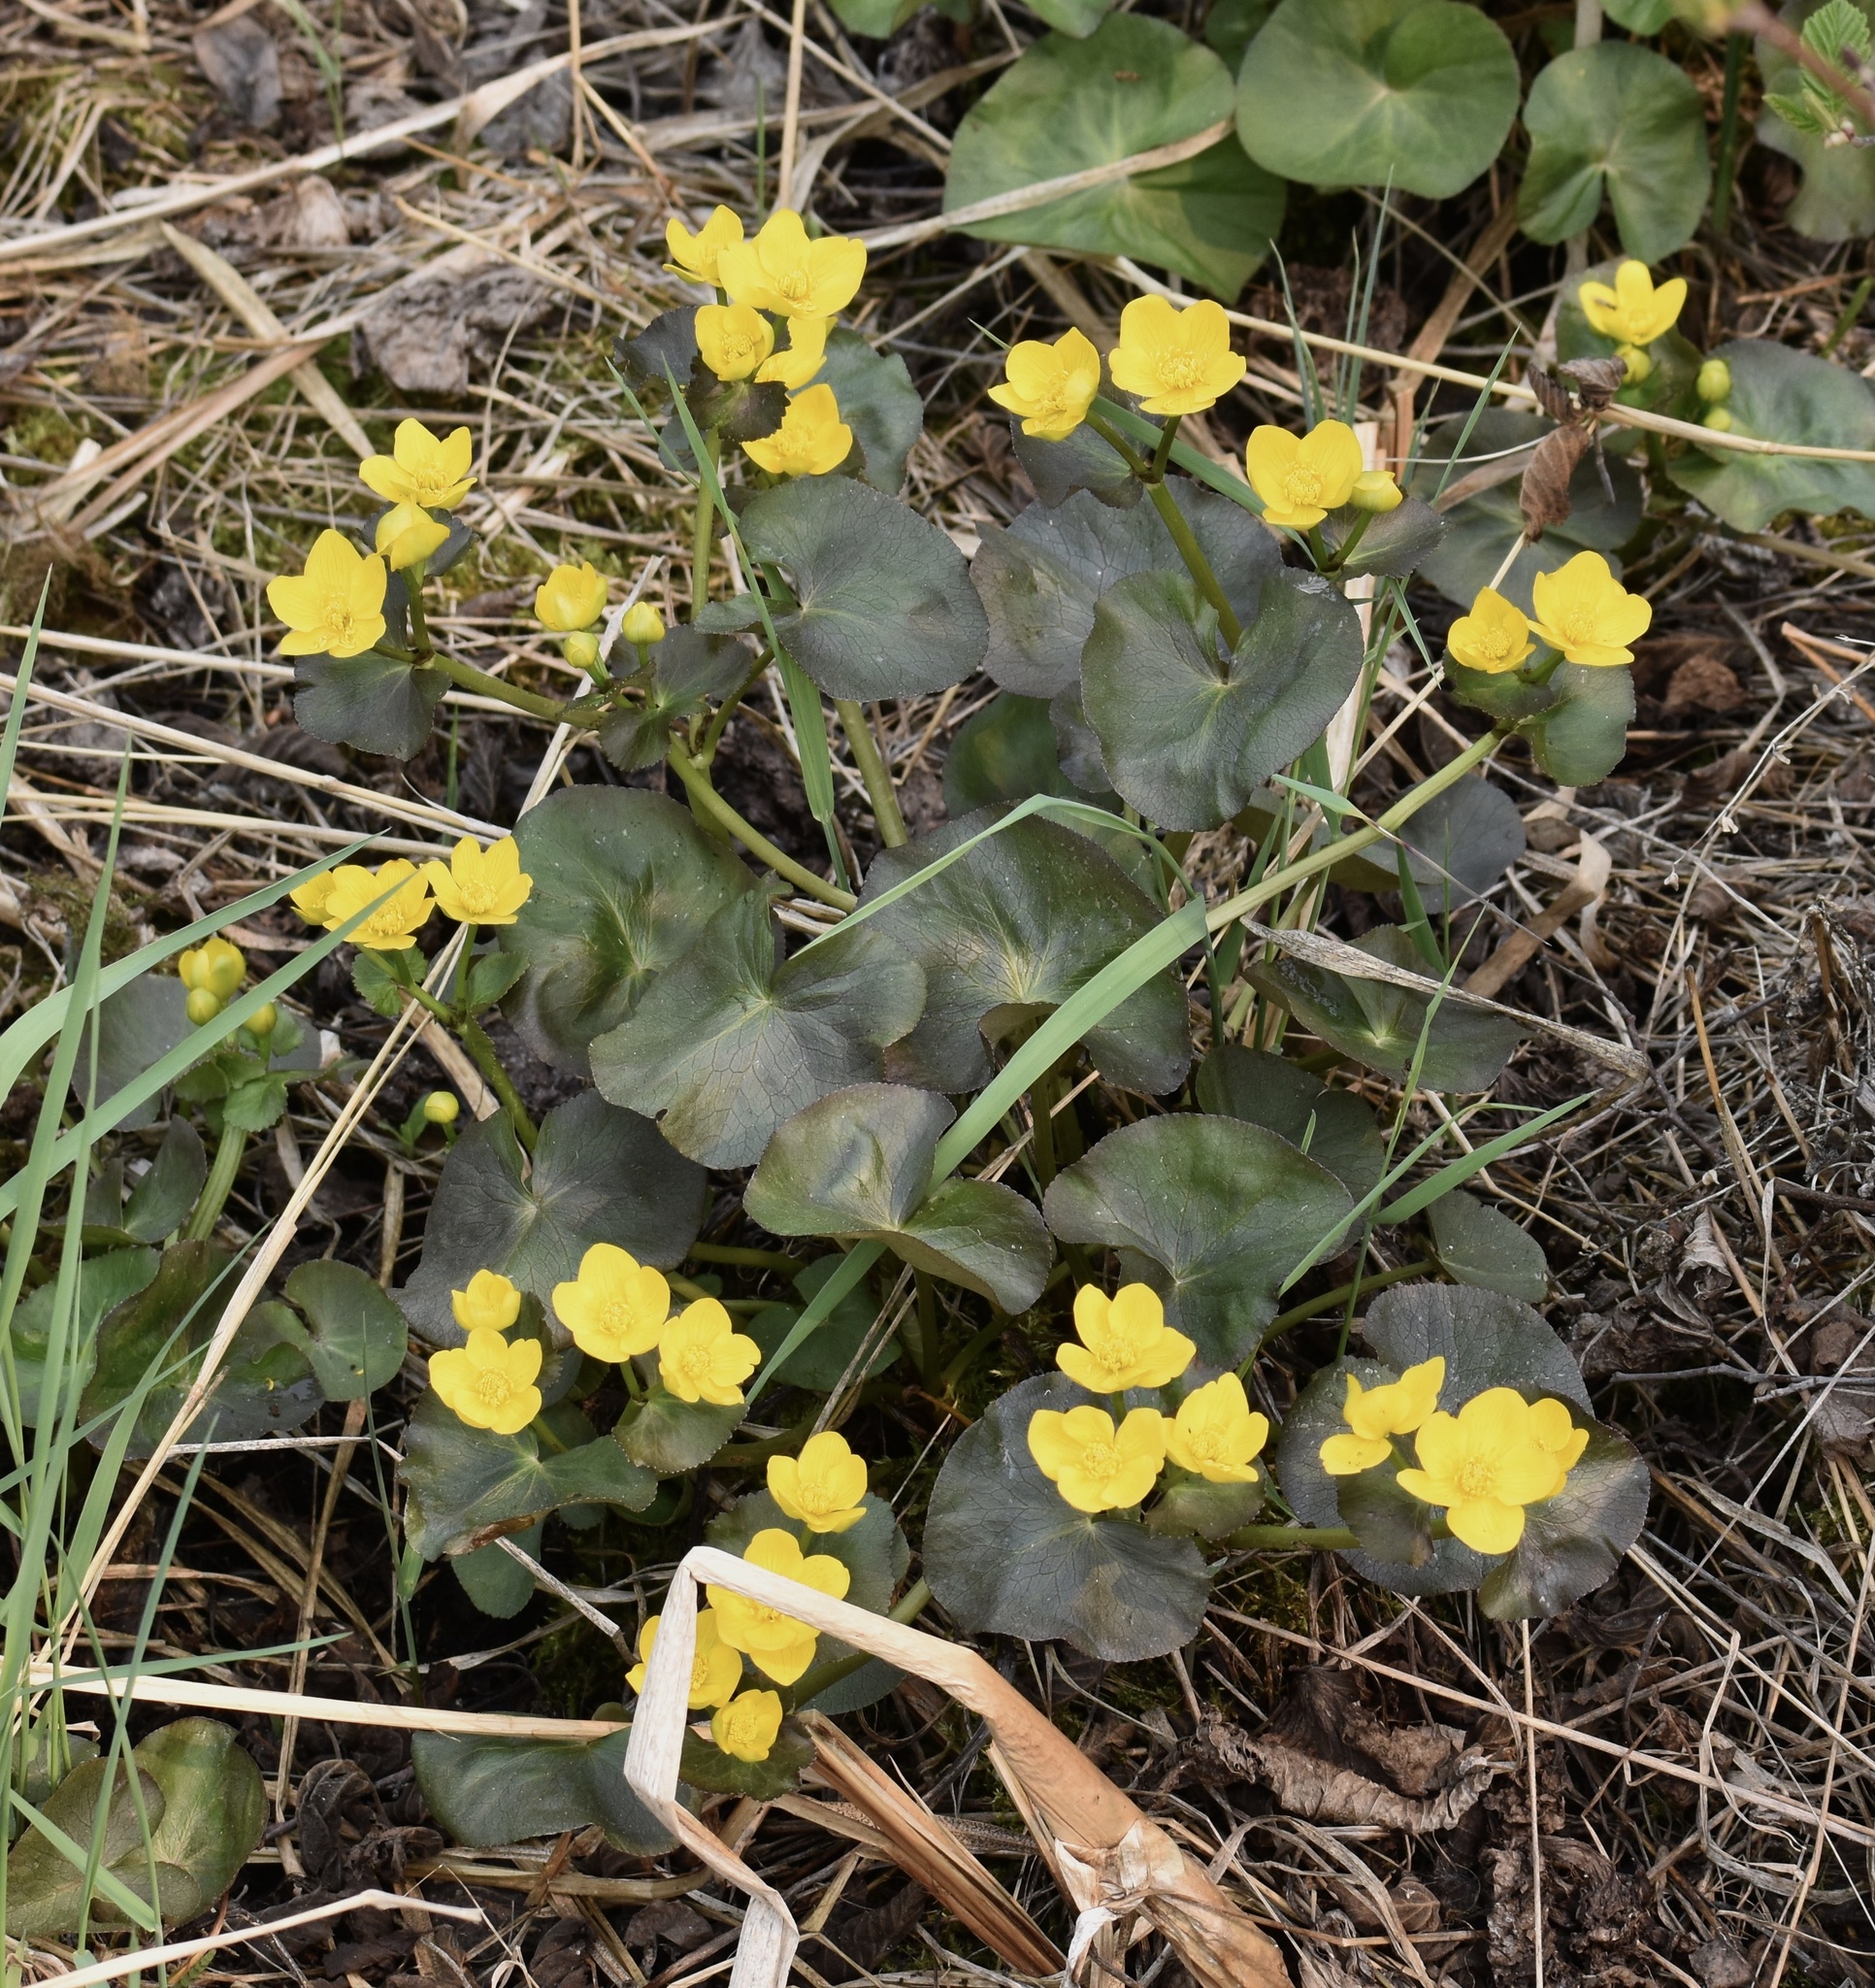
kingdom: Plantae
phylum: Tracheophyta
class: Magnoliopsida
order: Ranunculales
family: Ranunculaceae
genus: Caltha
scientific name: Caltha palustris
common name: Marsh marigold
